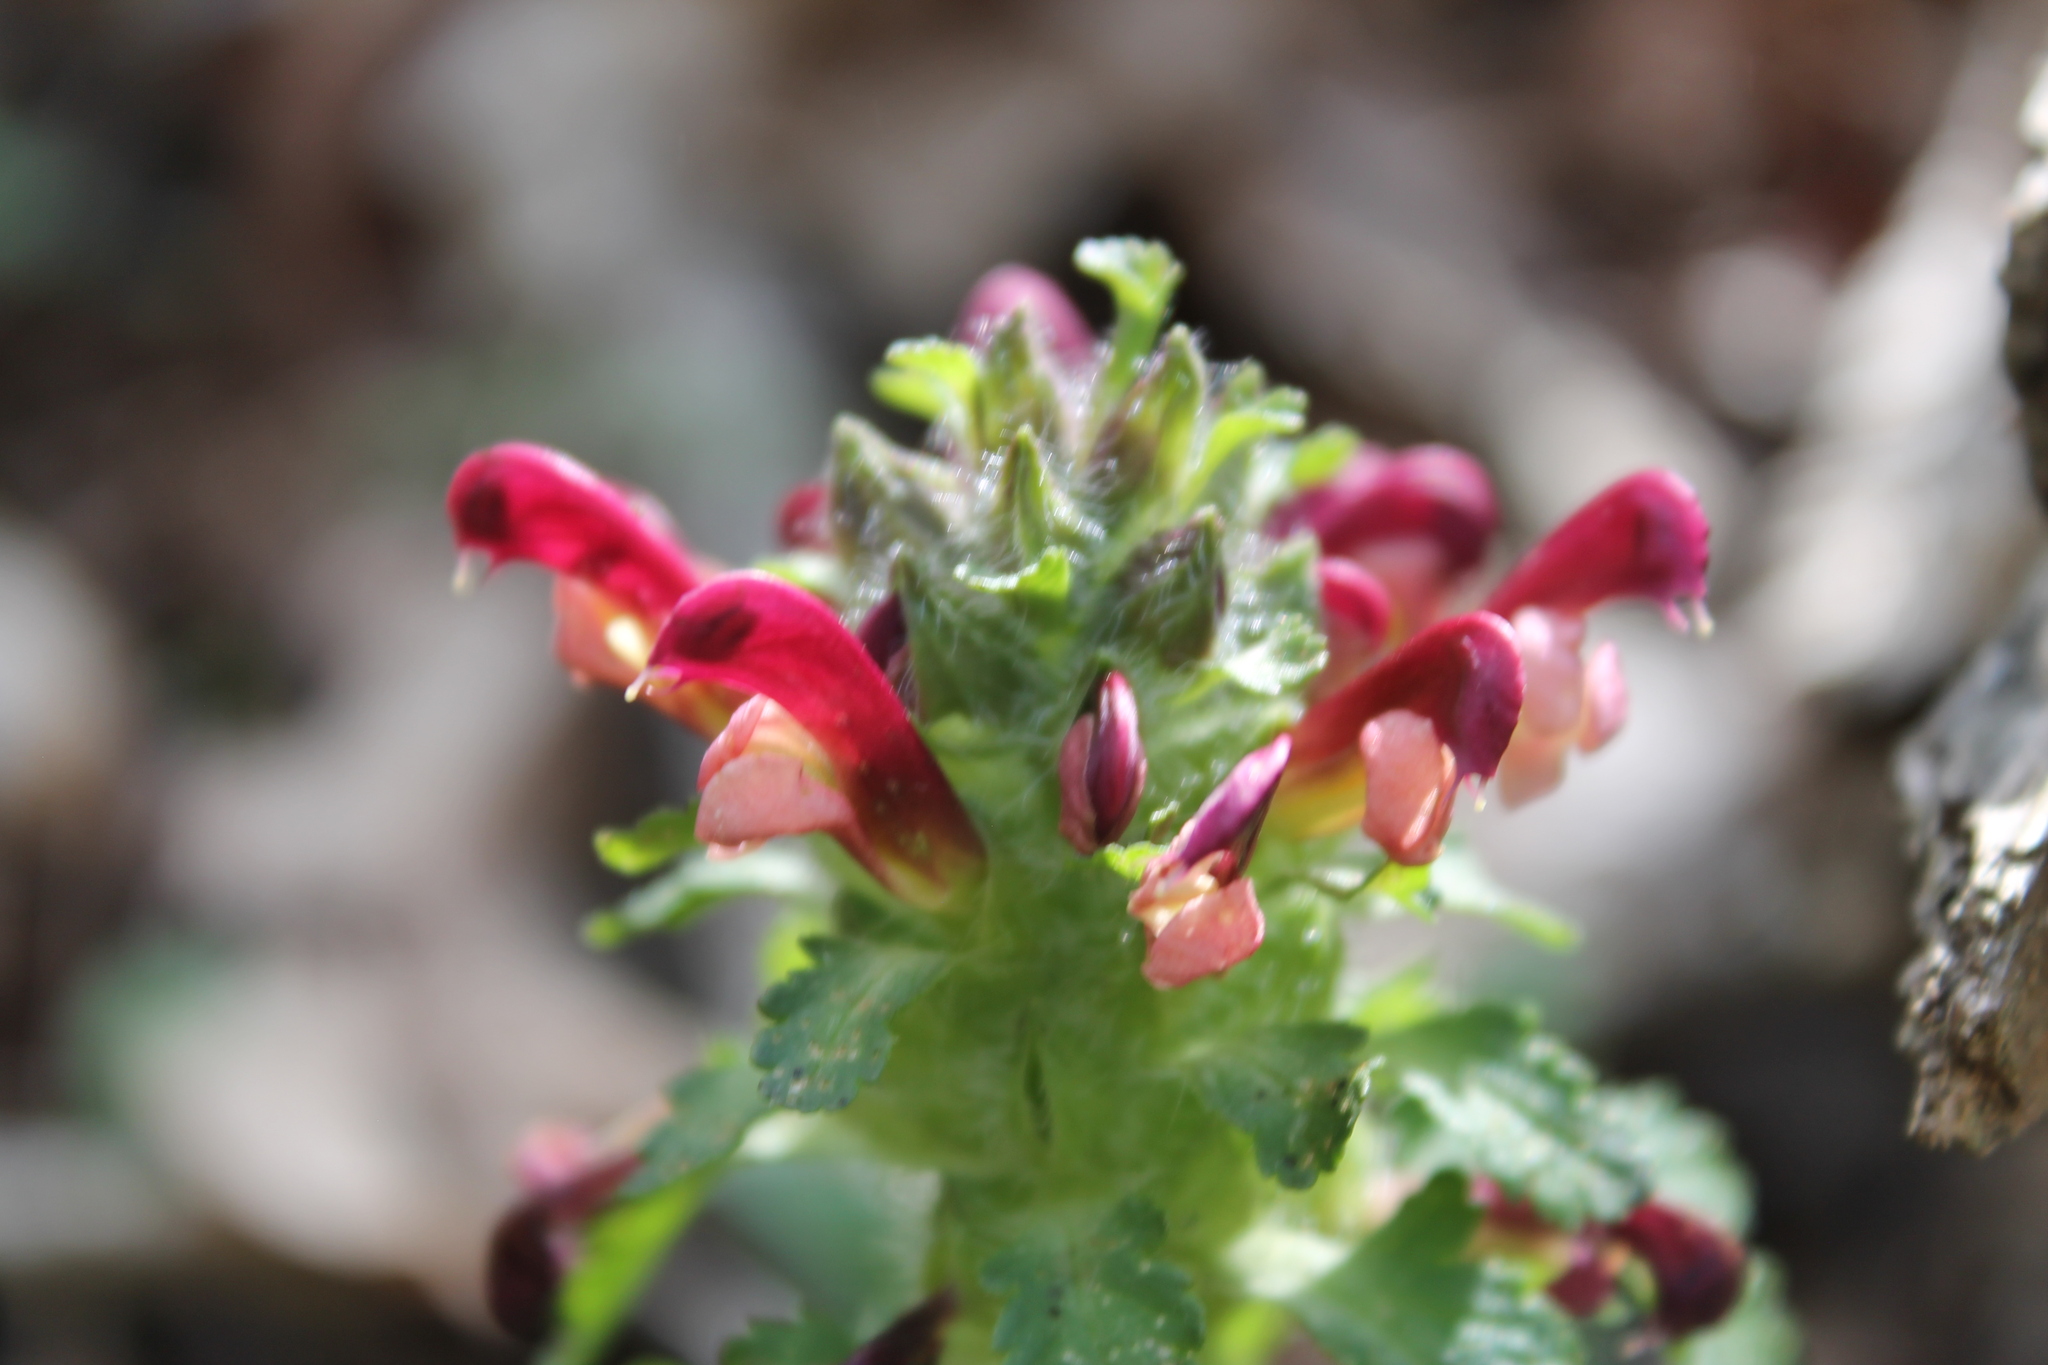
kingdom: Plantae
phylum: Tracheophyta
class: Magnoliopsida
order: Lamiales
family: Orobanchaceae
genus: Pedicularis
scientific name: Pedicularis canadensis
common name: Early lousewort
